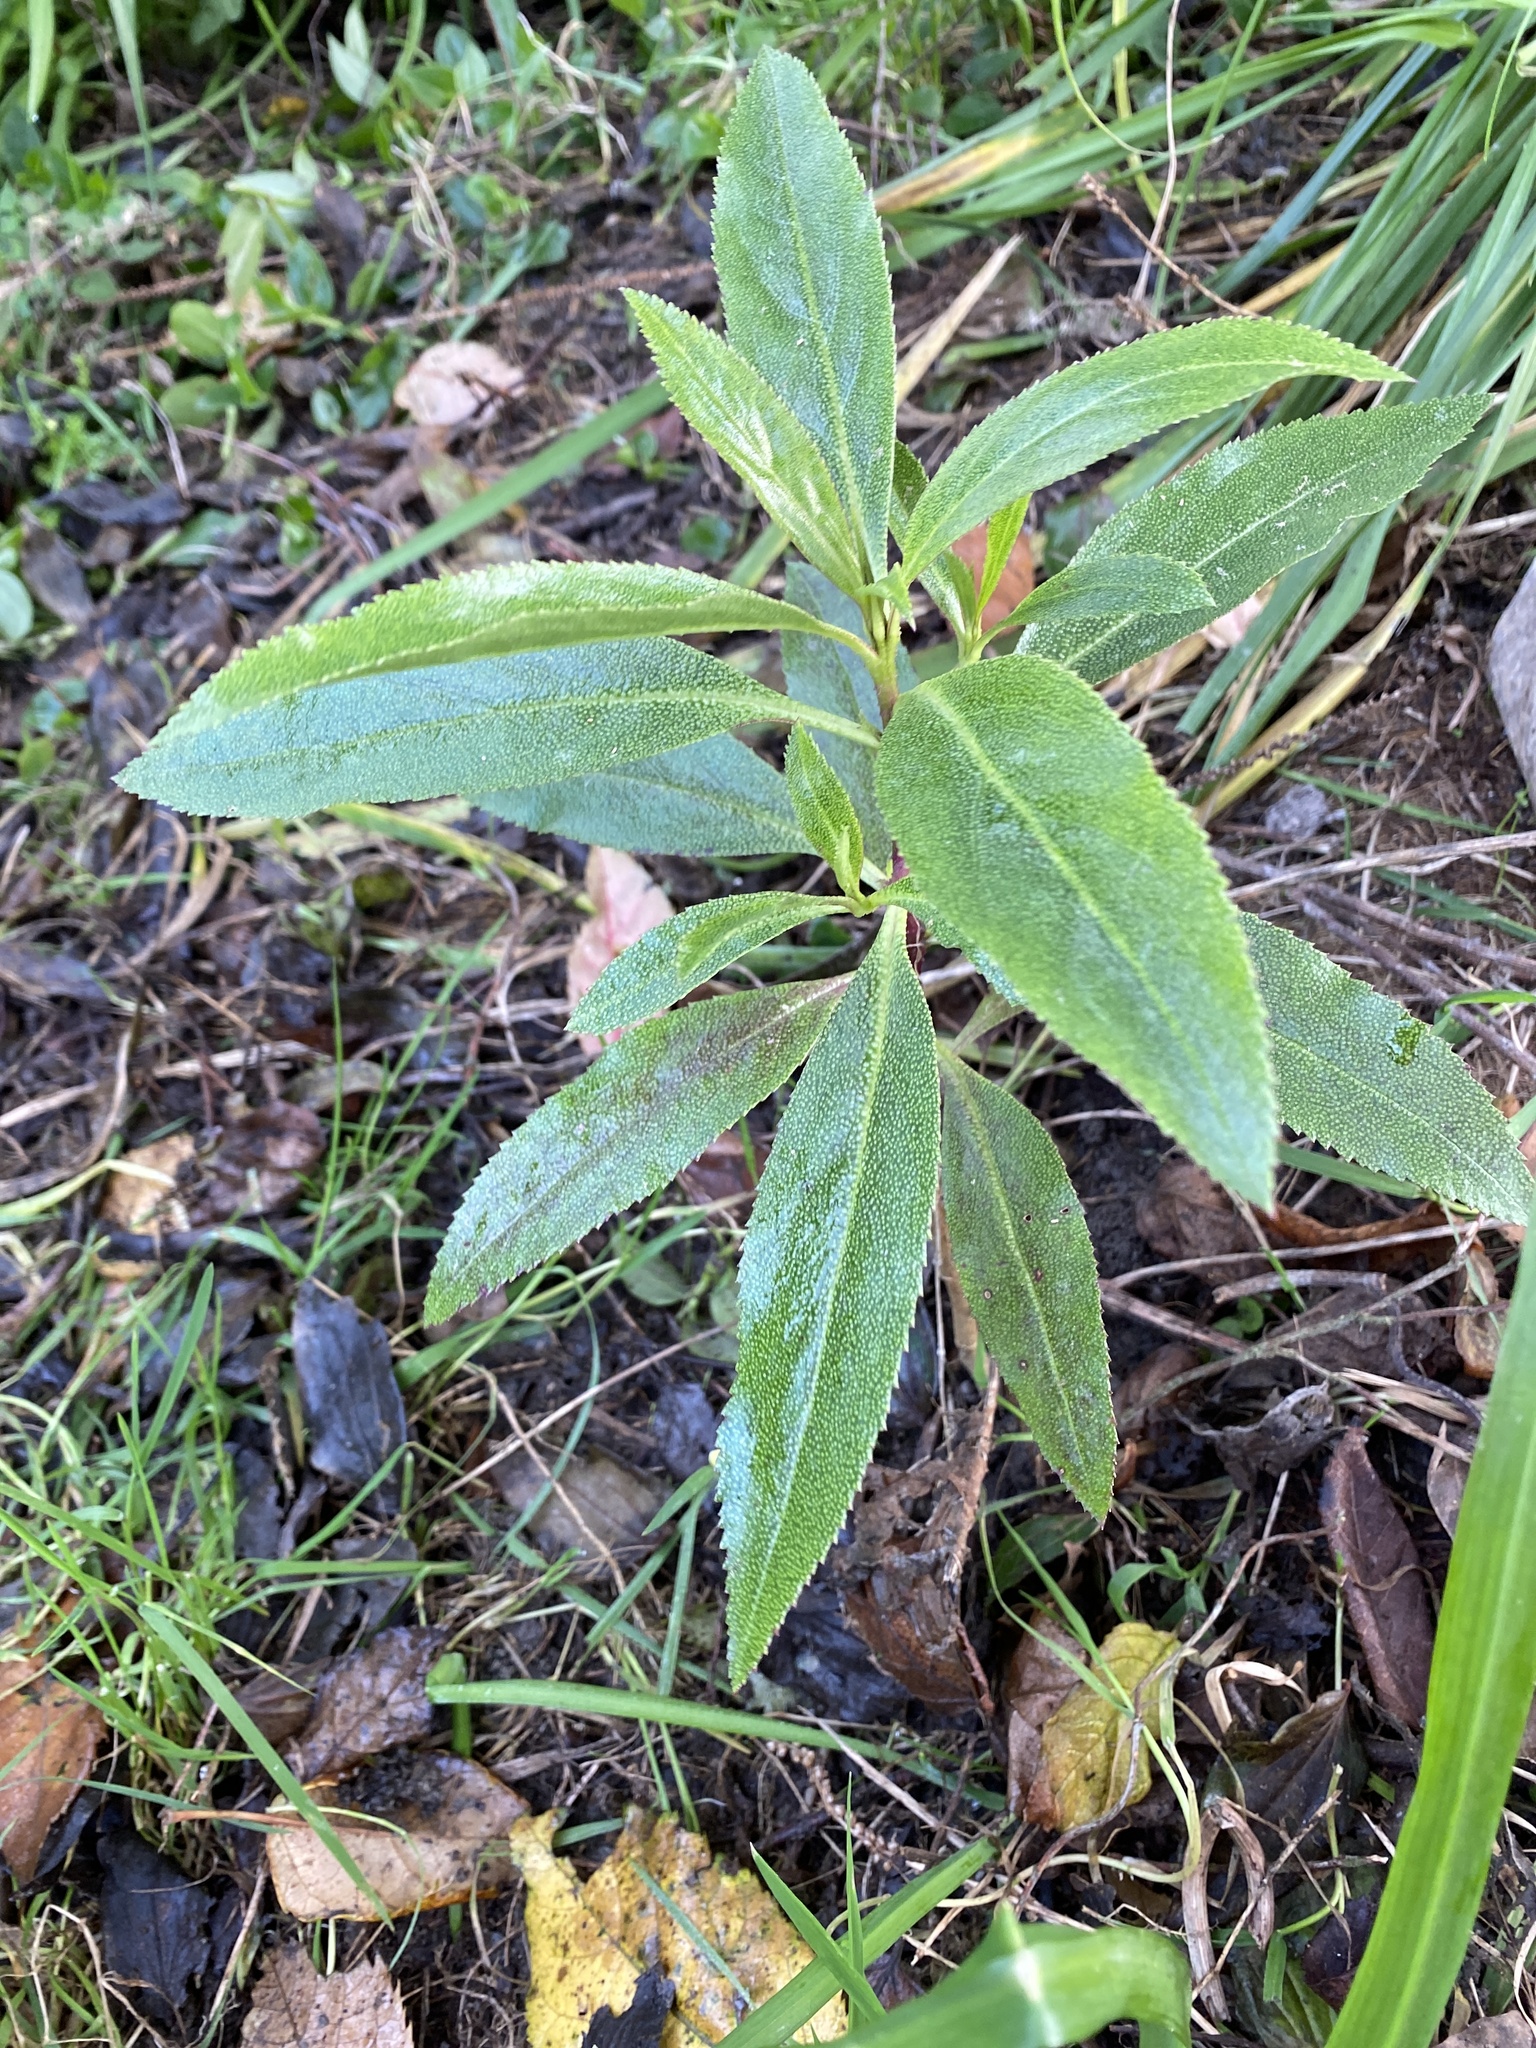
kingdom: Plantae
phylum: Tracheophyta
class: Magnoliopsida
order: Lamiales
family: Scrophulariaceae
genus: Myoporum
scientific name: Myoporum laetum
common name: Ngaio tree
